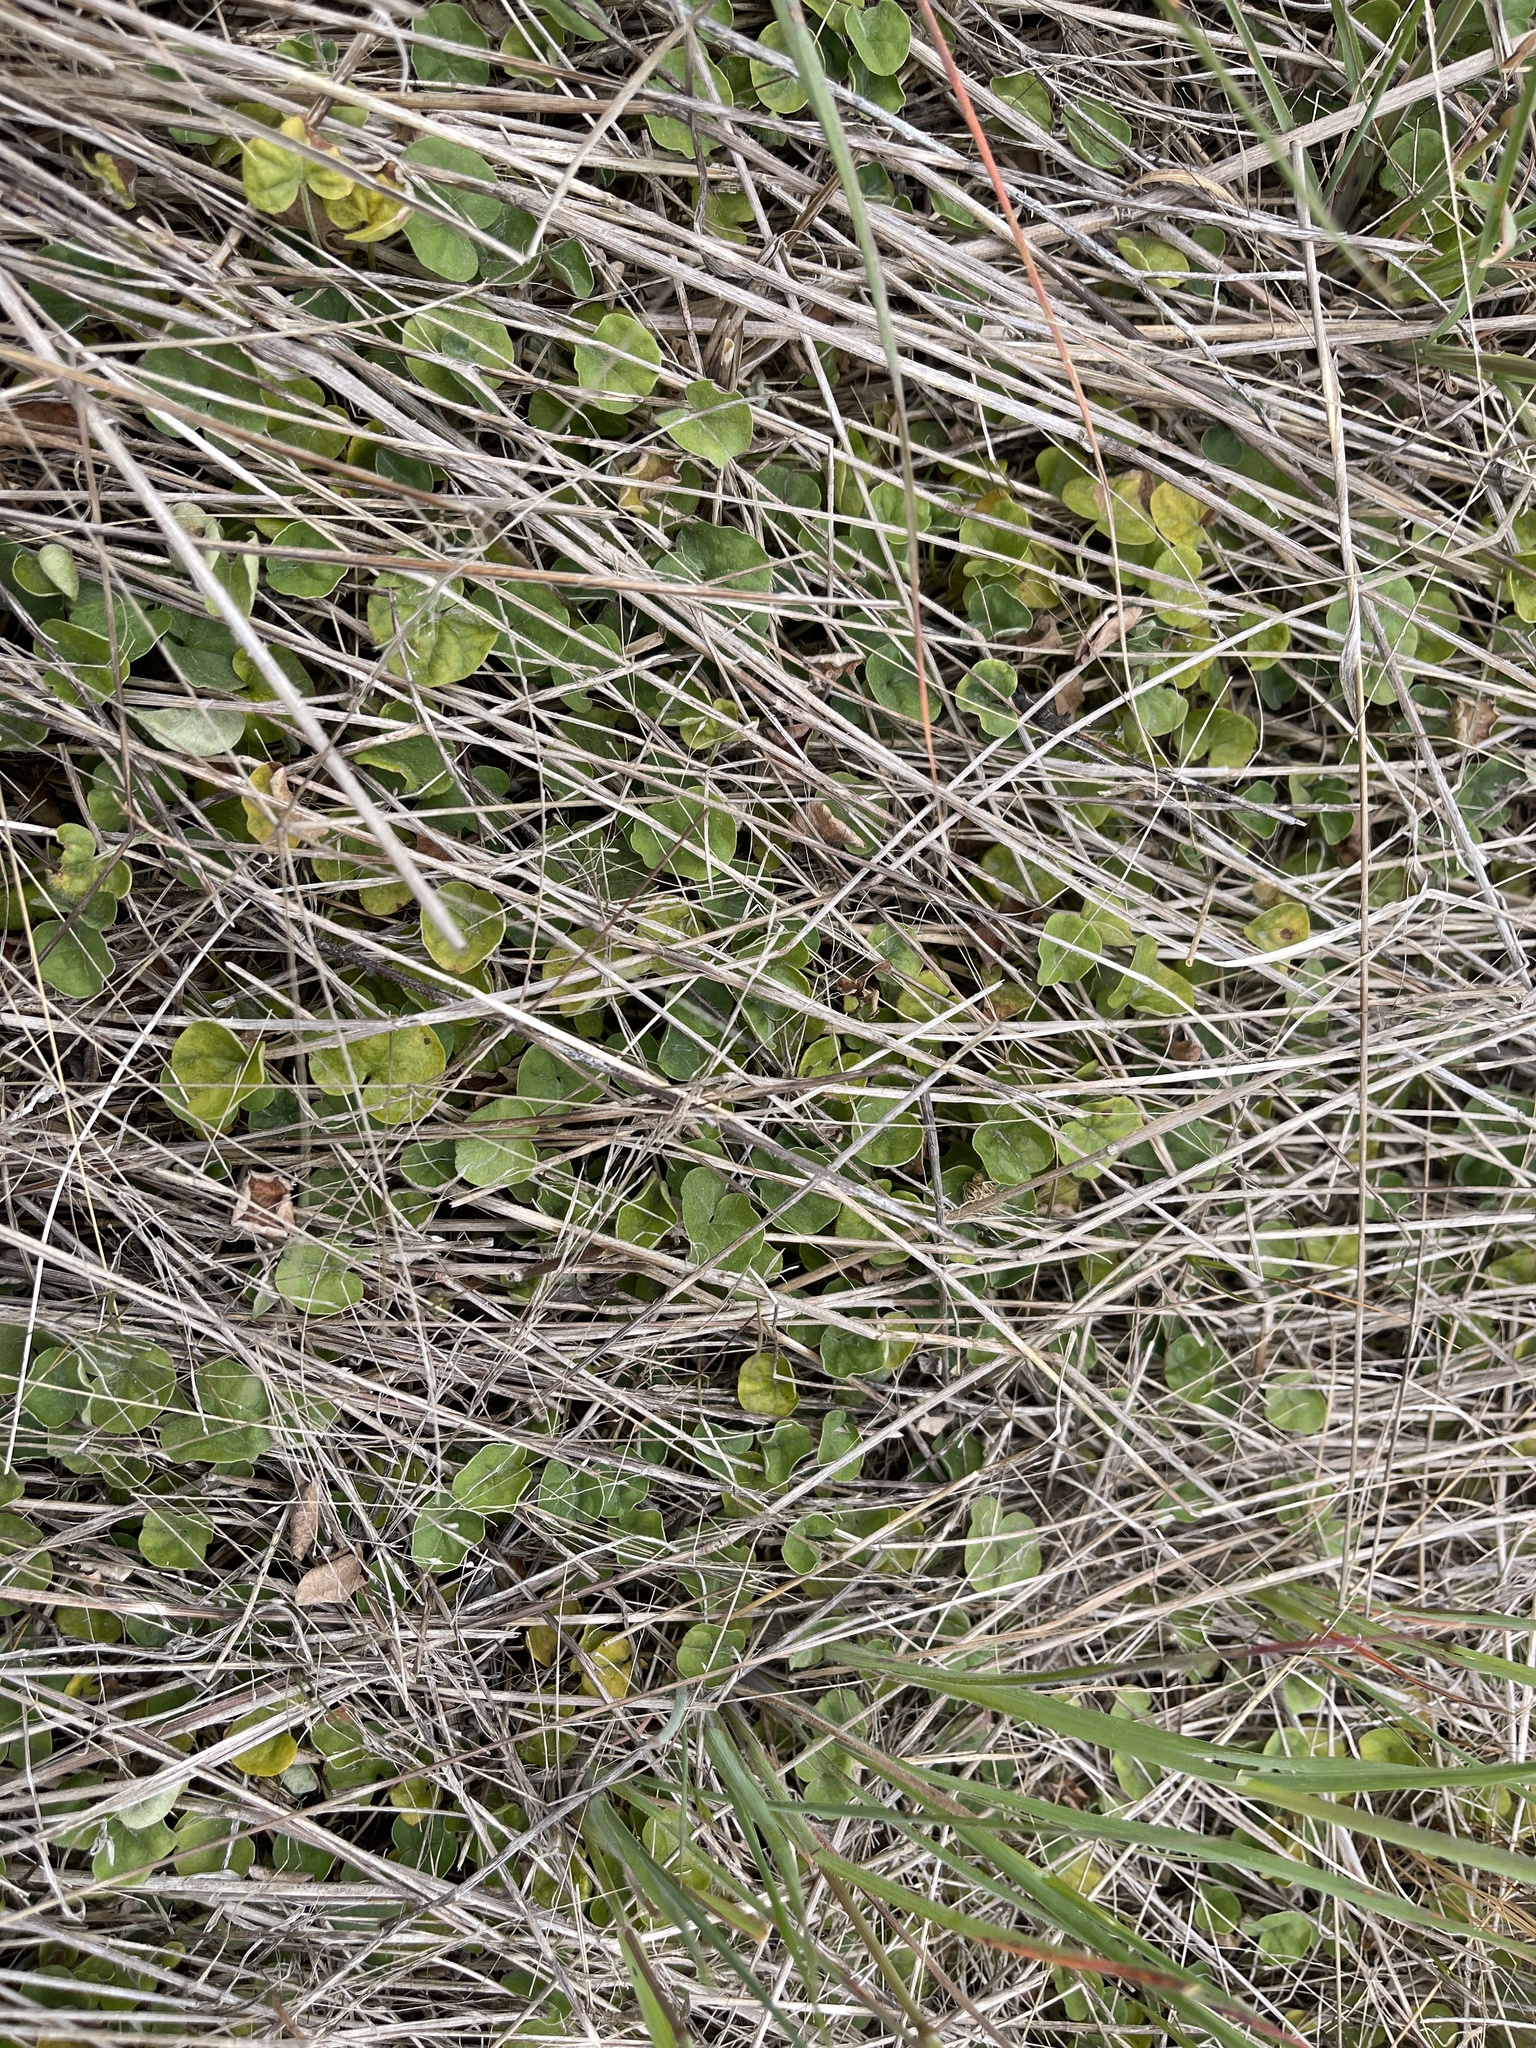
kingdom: Plantae
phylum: Tracheophyta
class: Magnoliopsida
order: Solanales
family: Convolvulaceae
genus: Dichondra
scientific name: Dichondra repens
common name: Kidneyweed
